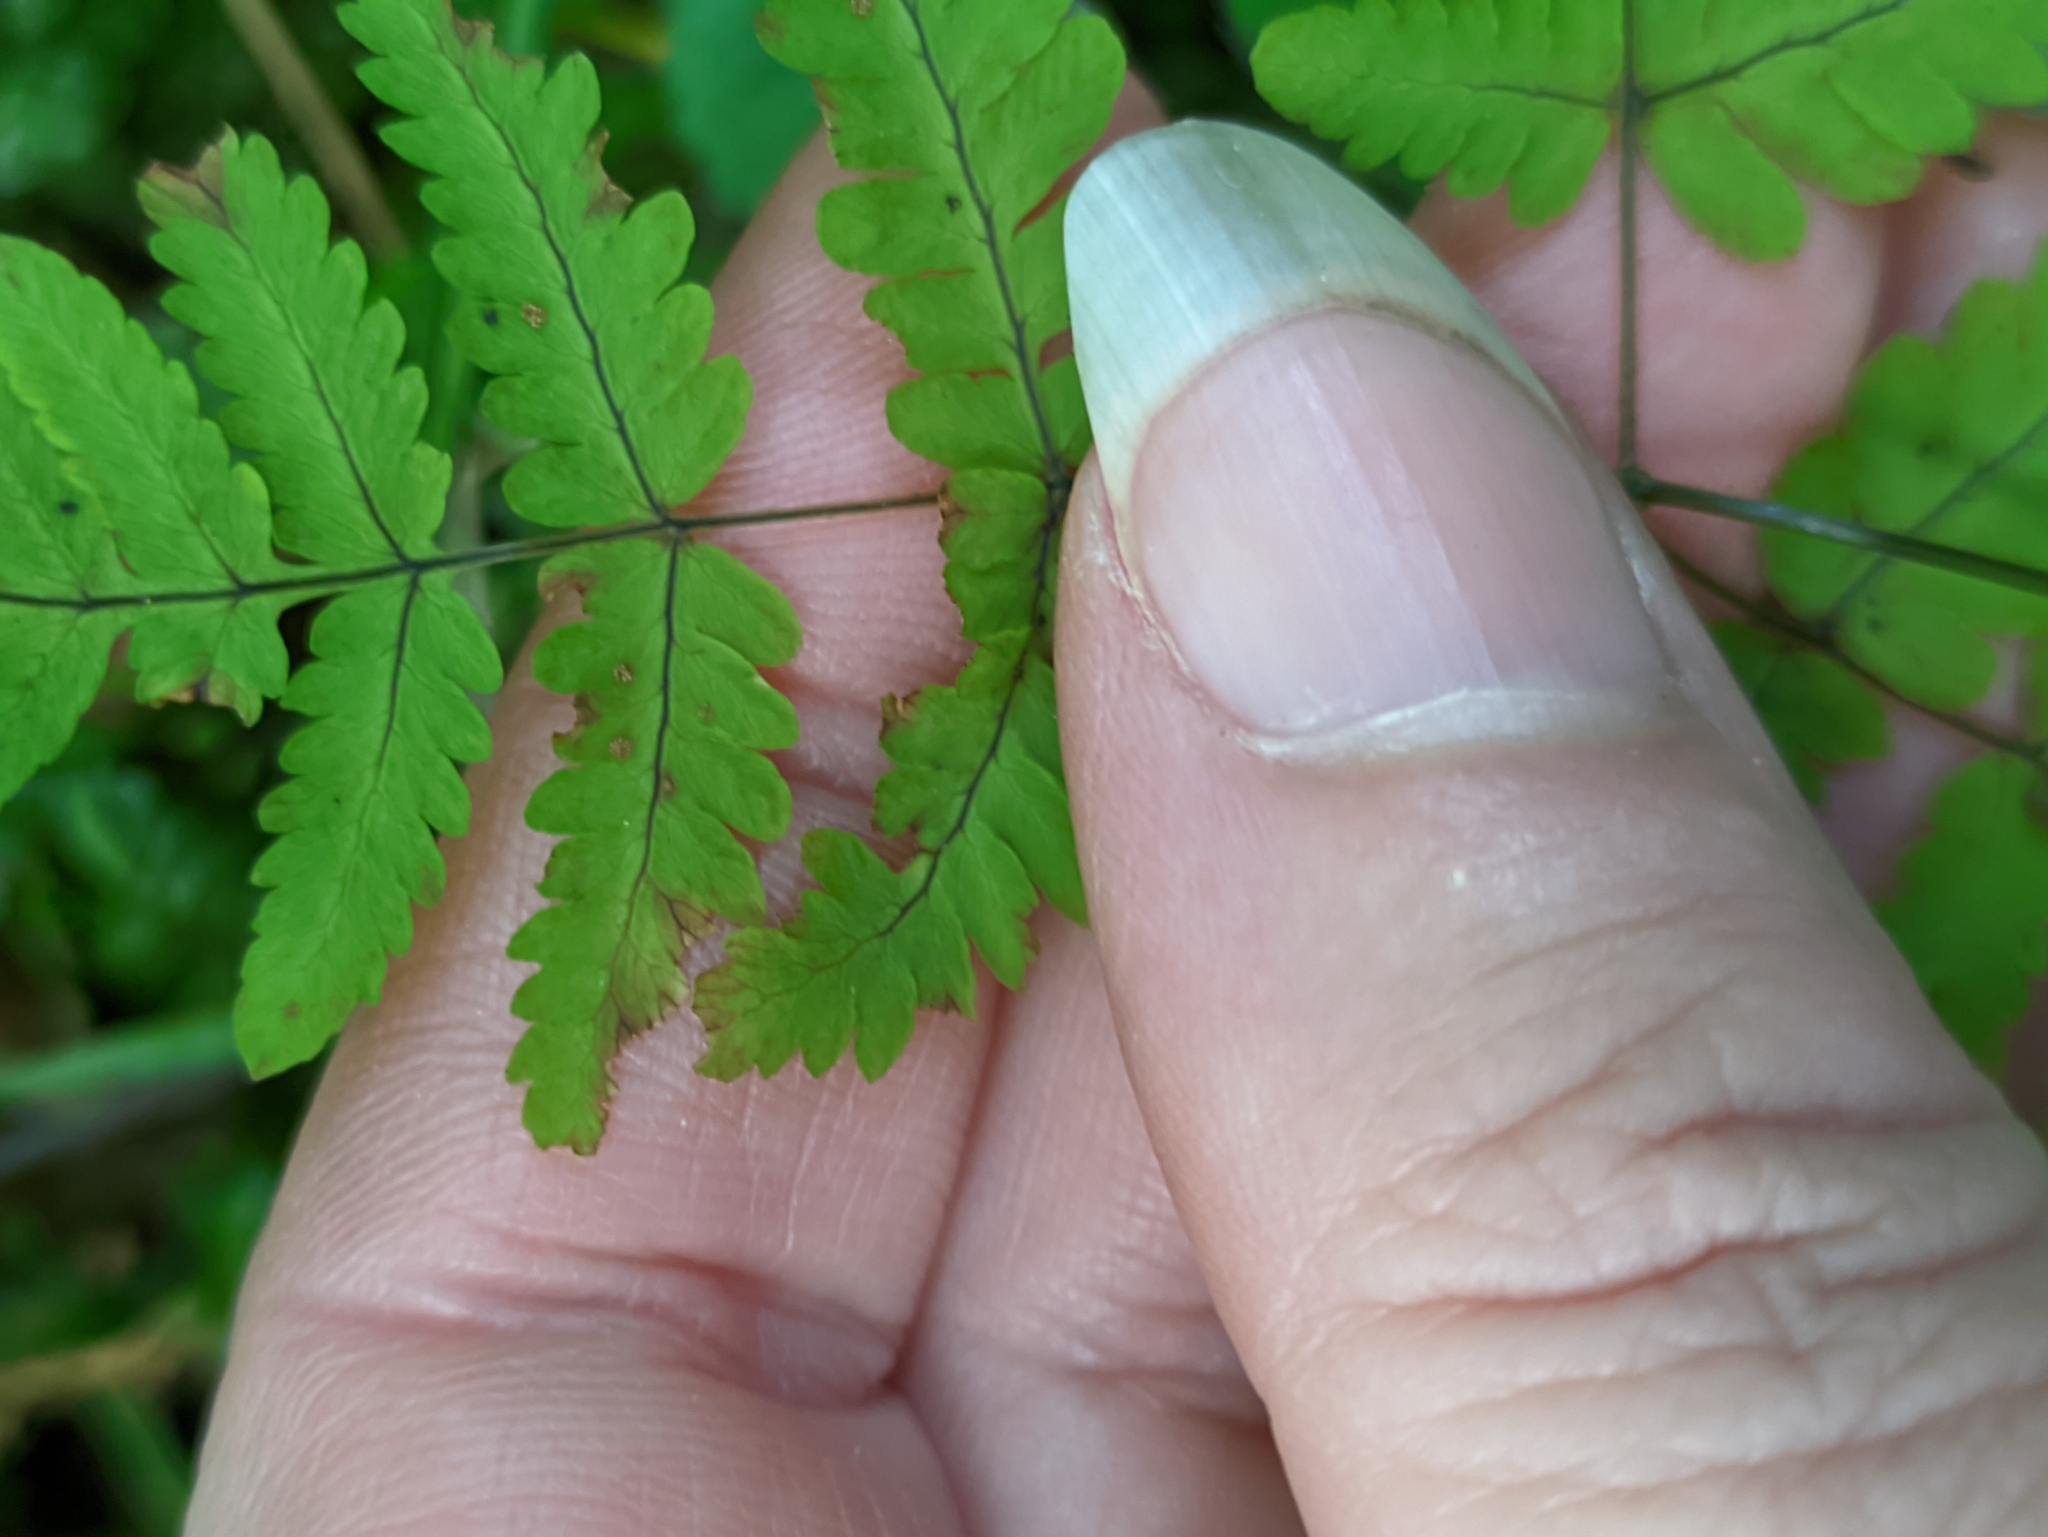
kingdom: Plantae
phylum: Tracheophyta
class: Polypodiopsida
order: Polypodiales
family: Cystopteridaceae
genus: Gymnocarpium
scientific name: Gymnocarpium dryopteris
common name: Oak fern
